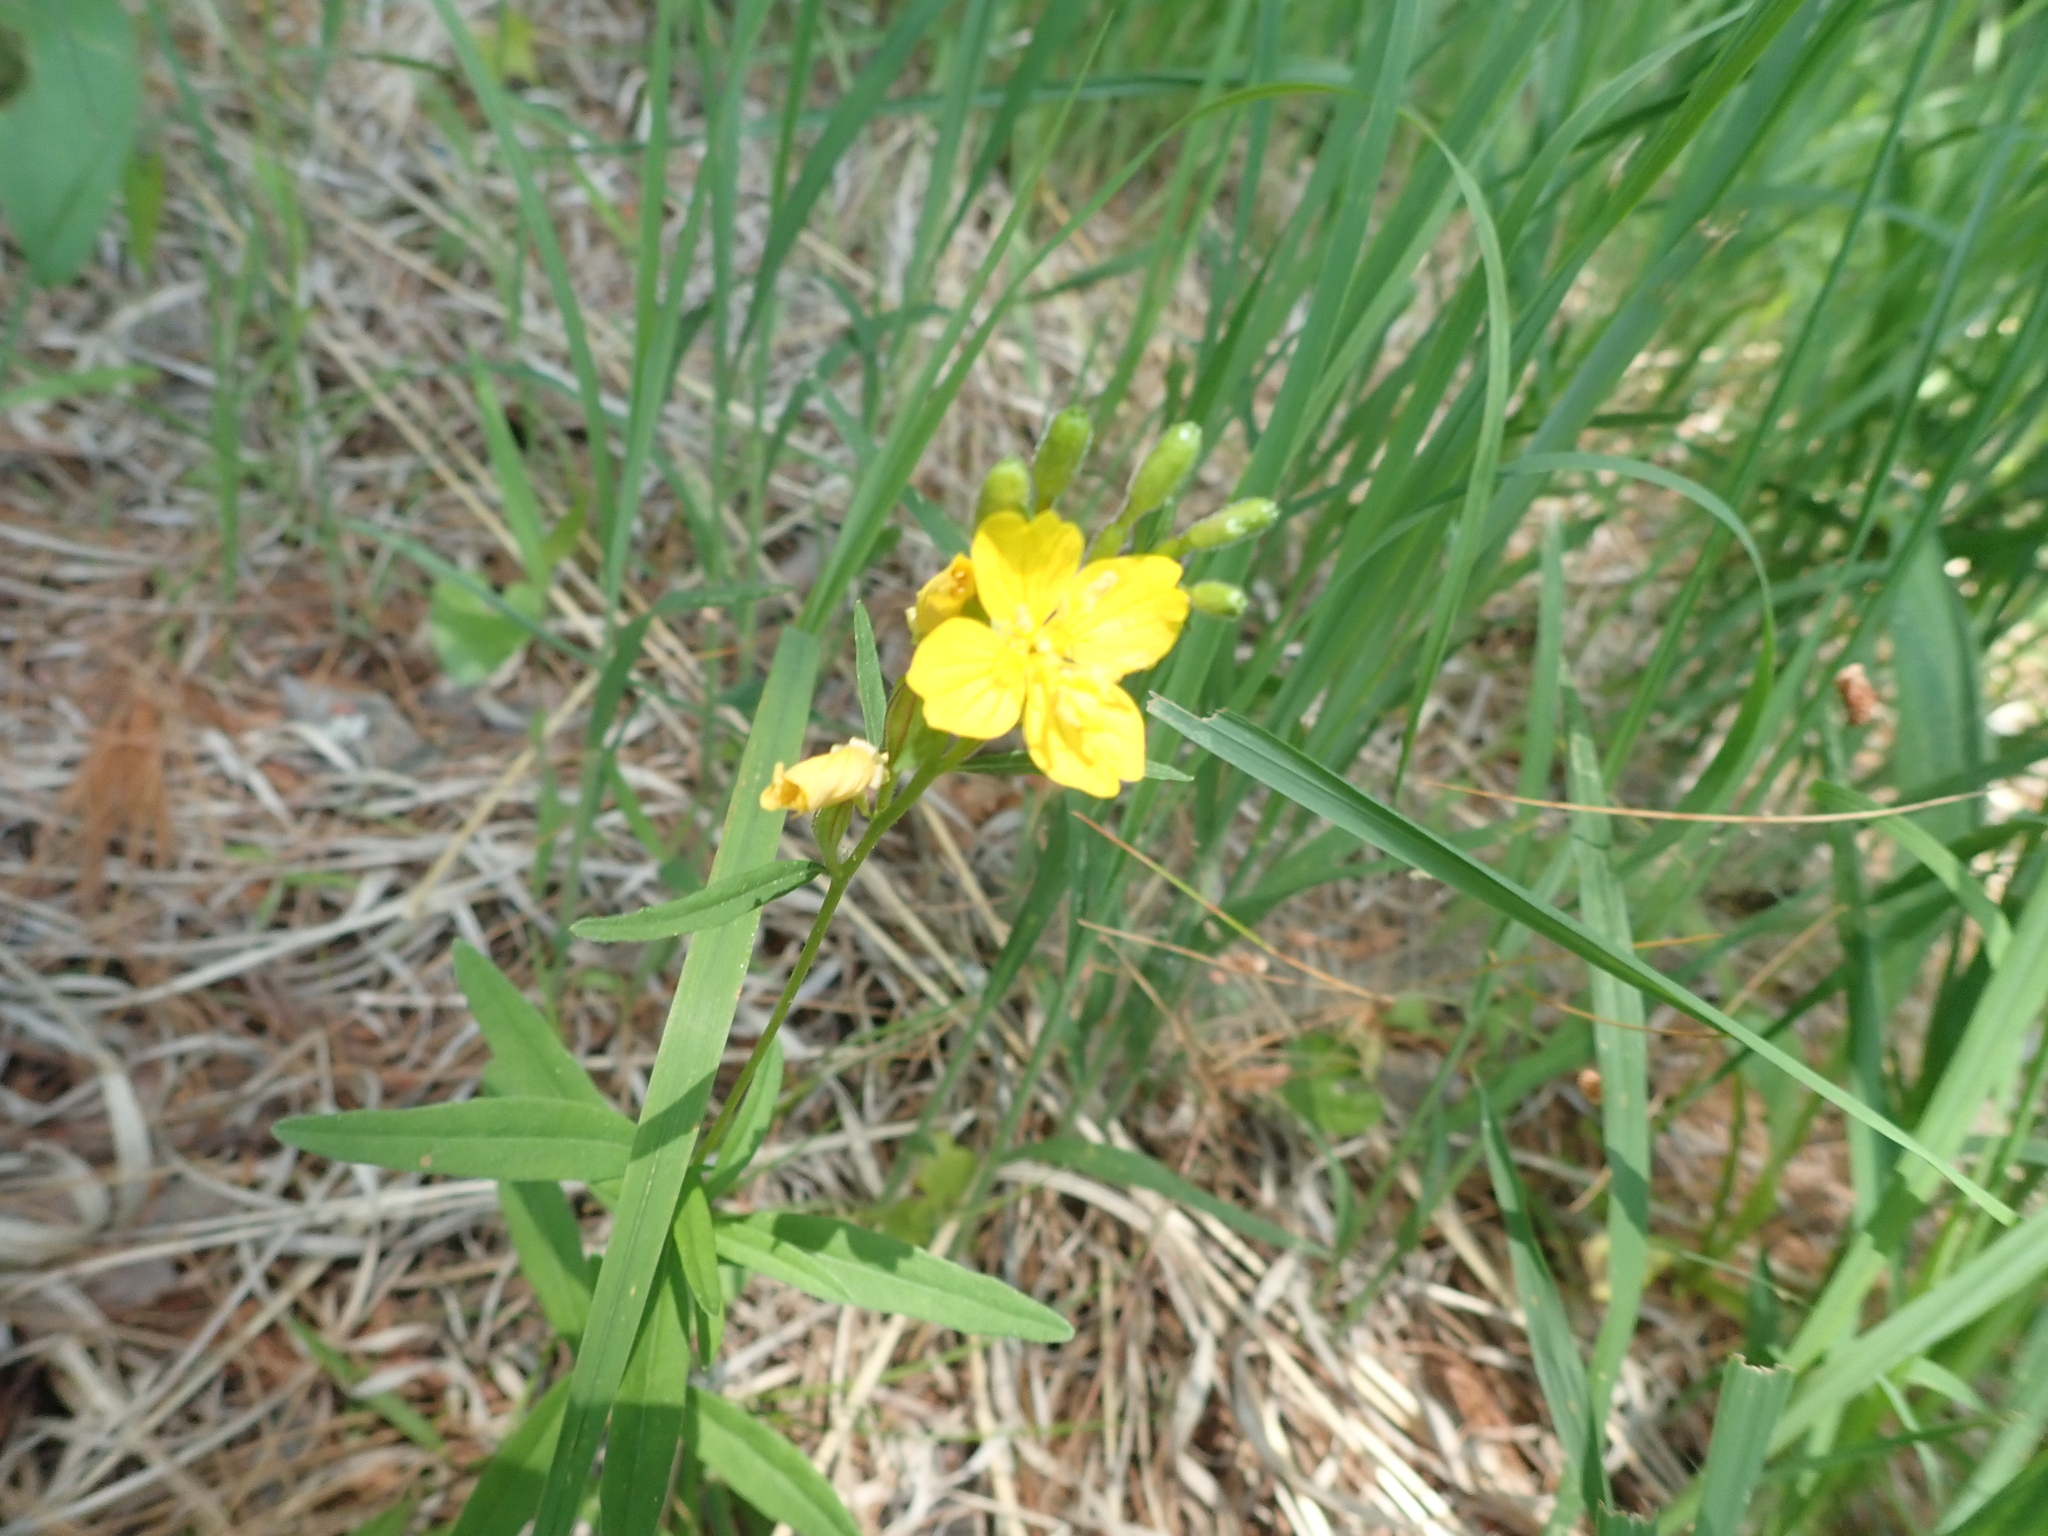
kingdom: Plantae
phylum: Tracheophyta
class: Magnoliopsida
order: Myrtales
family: Onagraceae
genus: Oenothera
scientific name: Oenothera perennis
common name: Small sundrops
